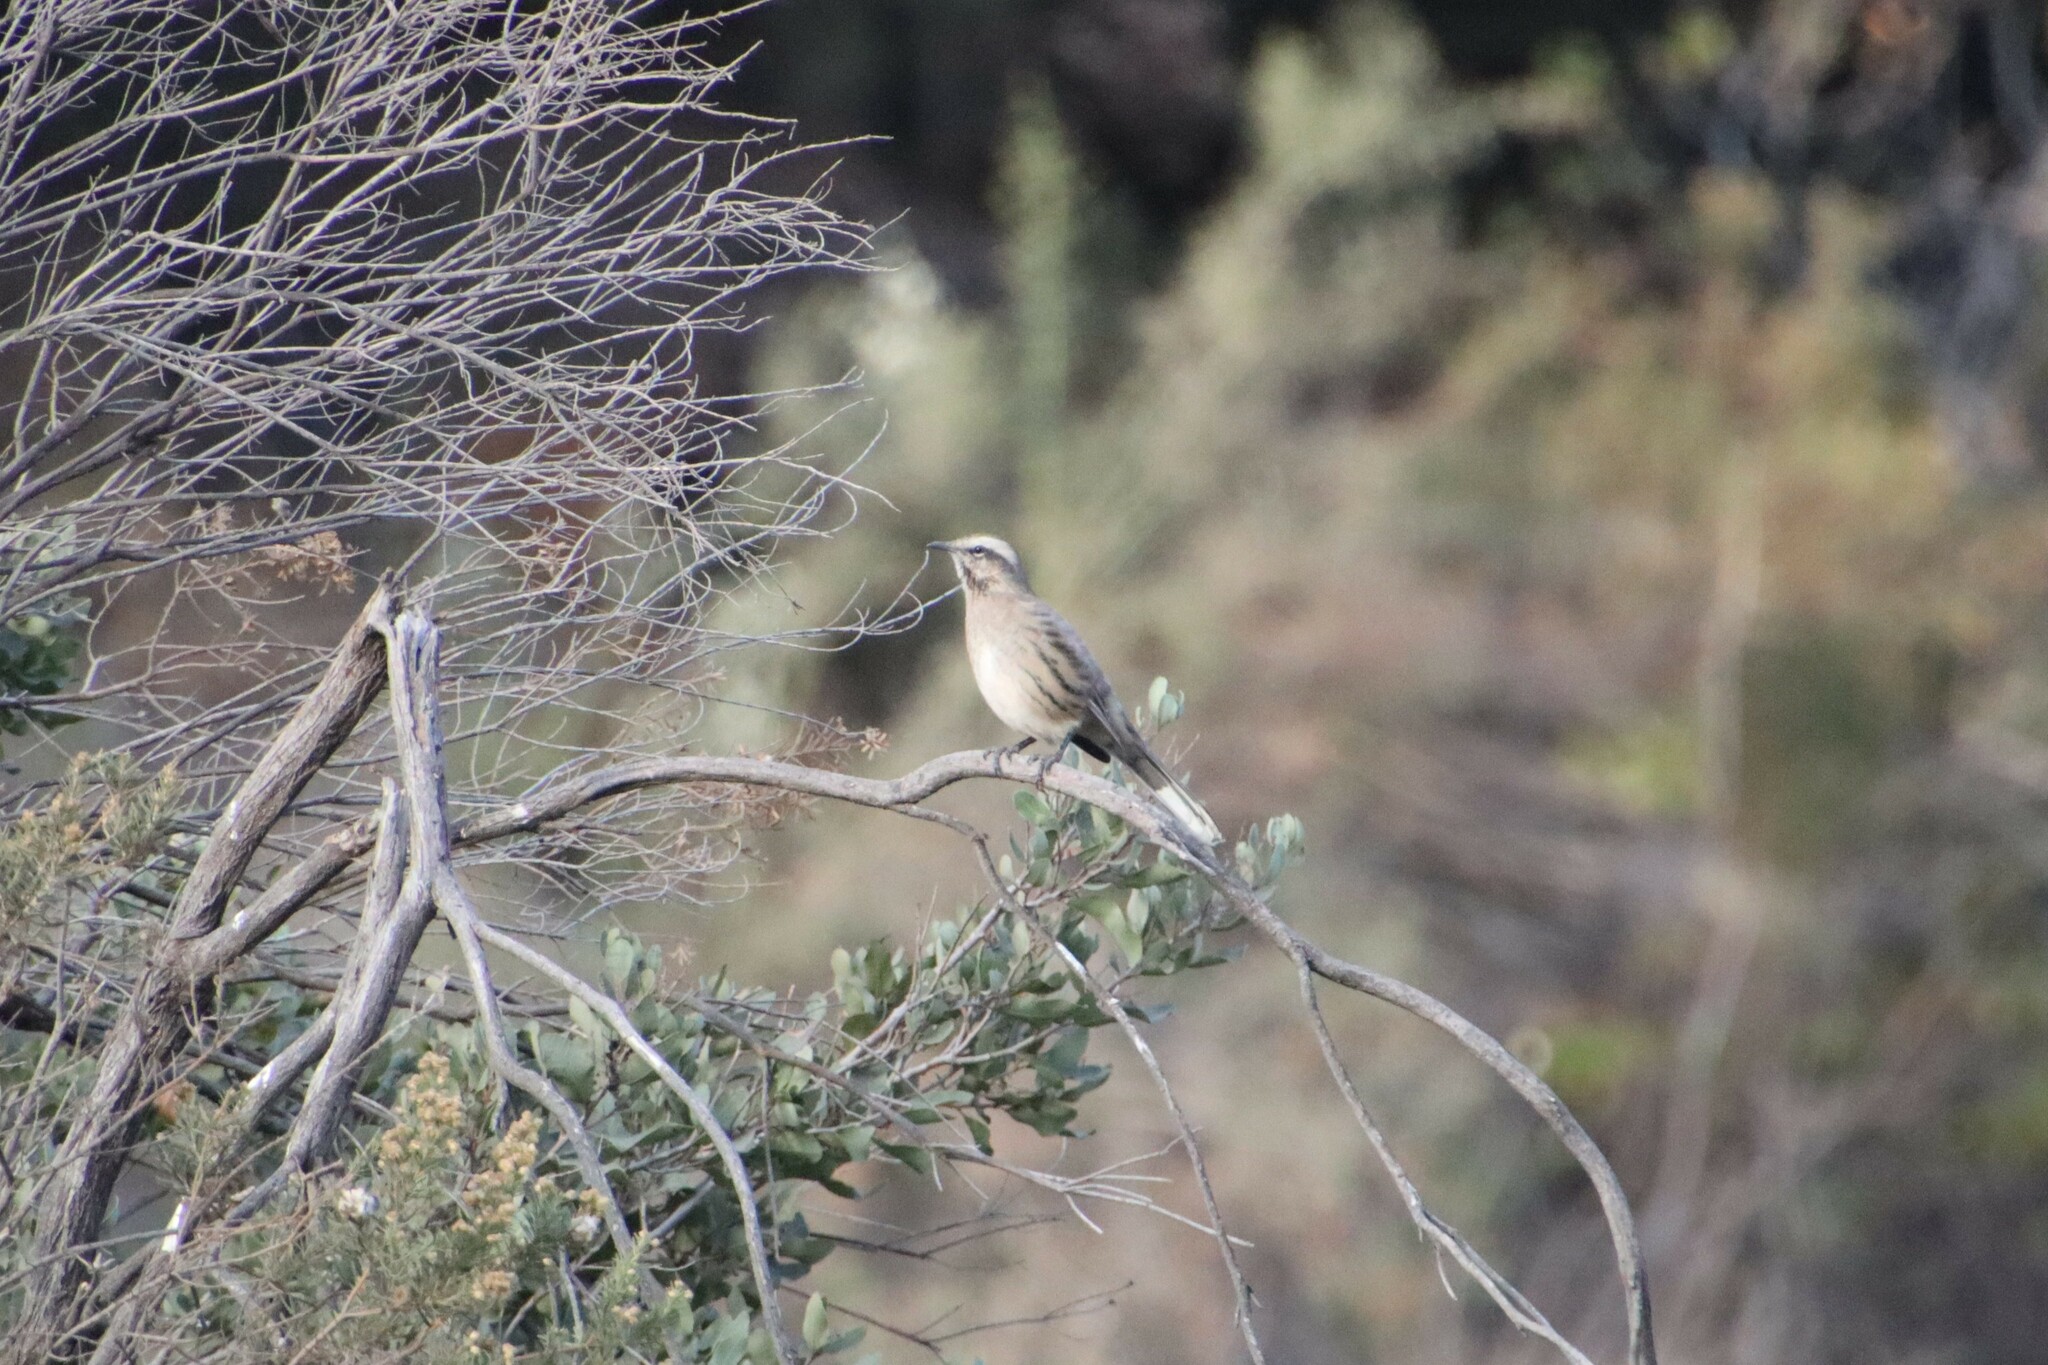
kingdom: Animalia
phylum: Chordata
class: Aves
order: Passeriformes
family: Mimidae
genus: Mimus
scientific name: Mimus thenca
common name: Chilean mockingbird
